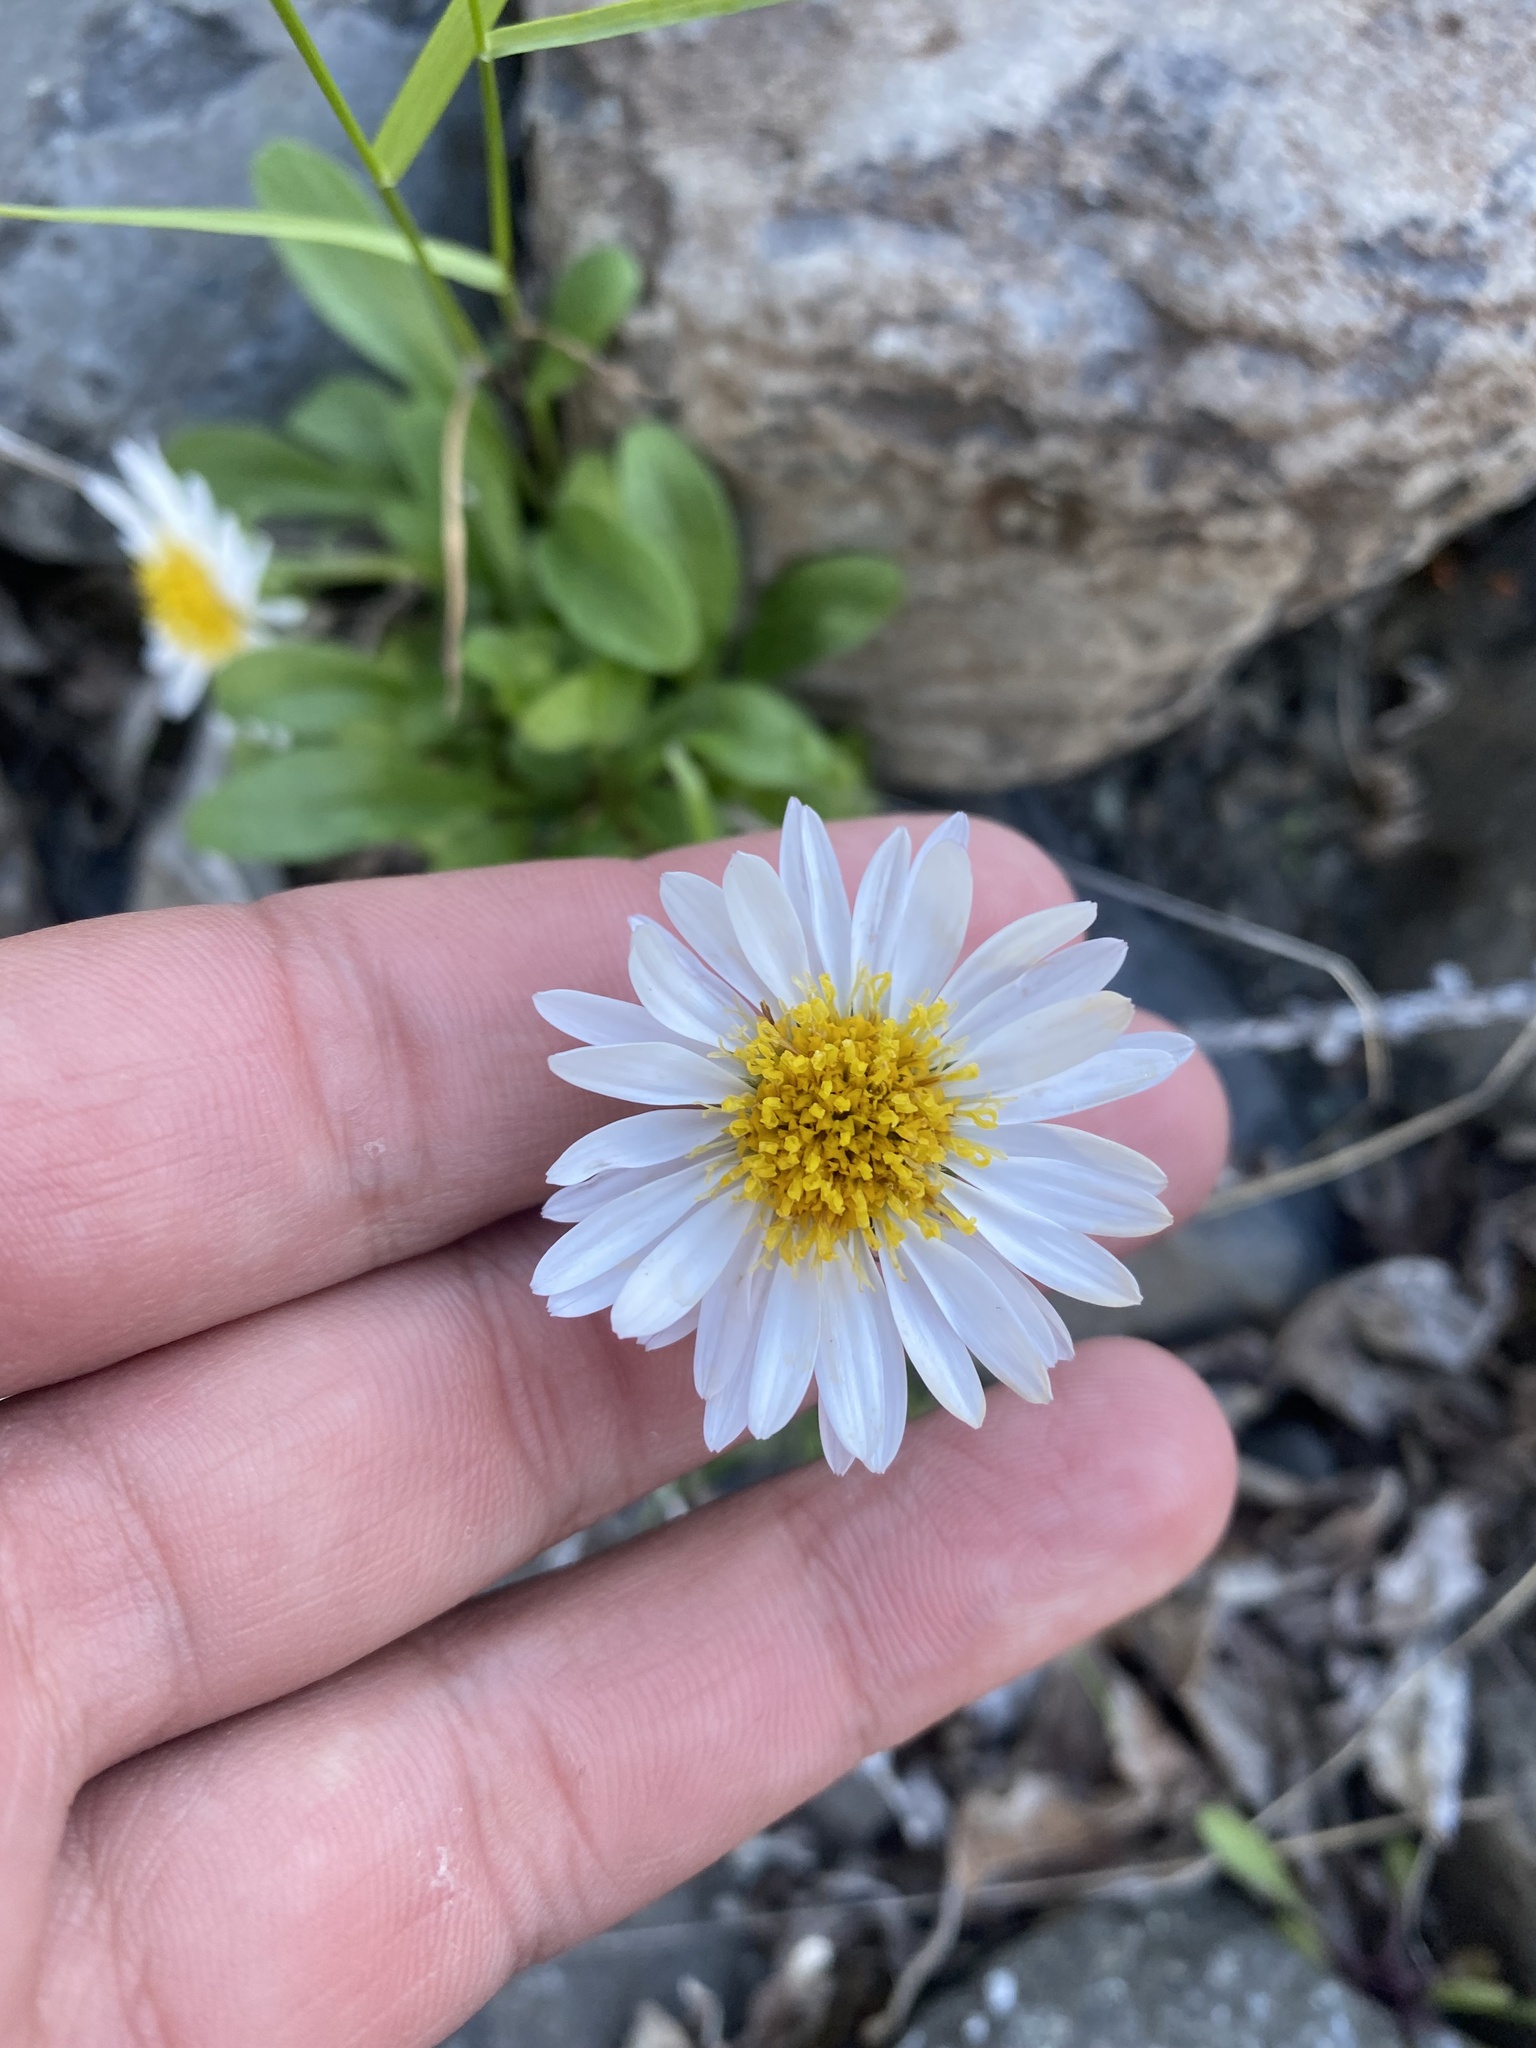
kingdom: Plantae
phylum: Tracheophyta
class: Magnoliopsida
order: Asterales
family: Asteraceae
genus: Aster
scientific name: Aster alpinus
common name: Alpine aster
